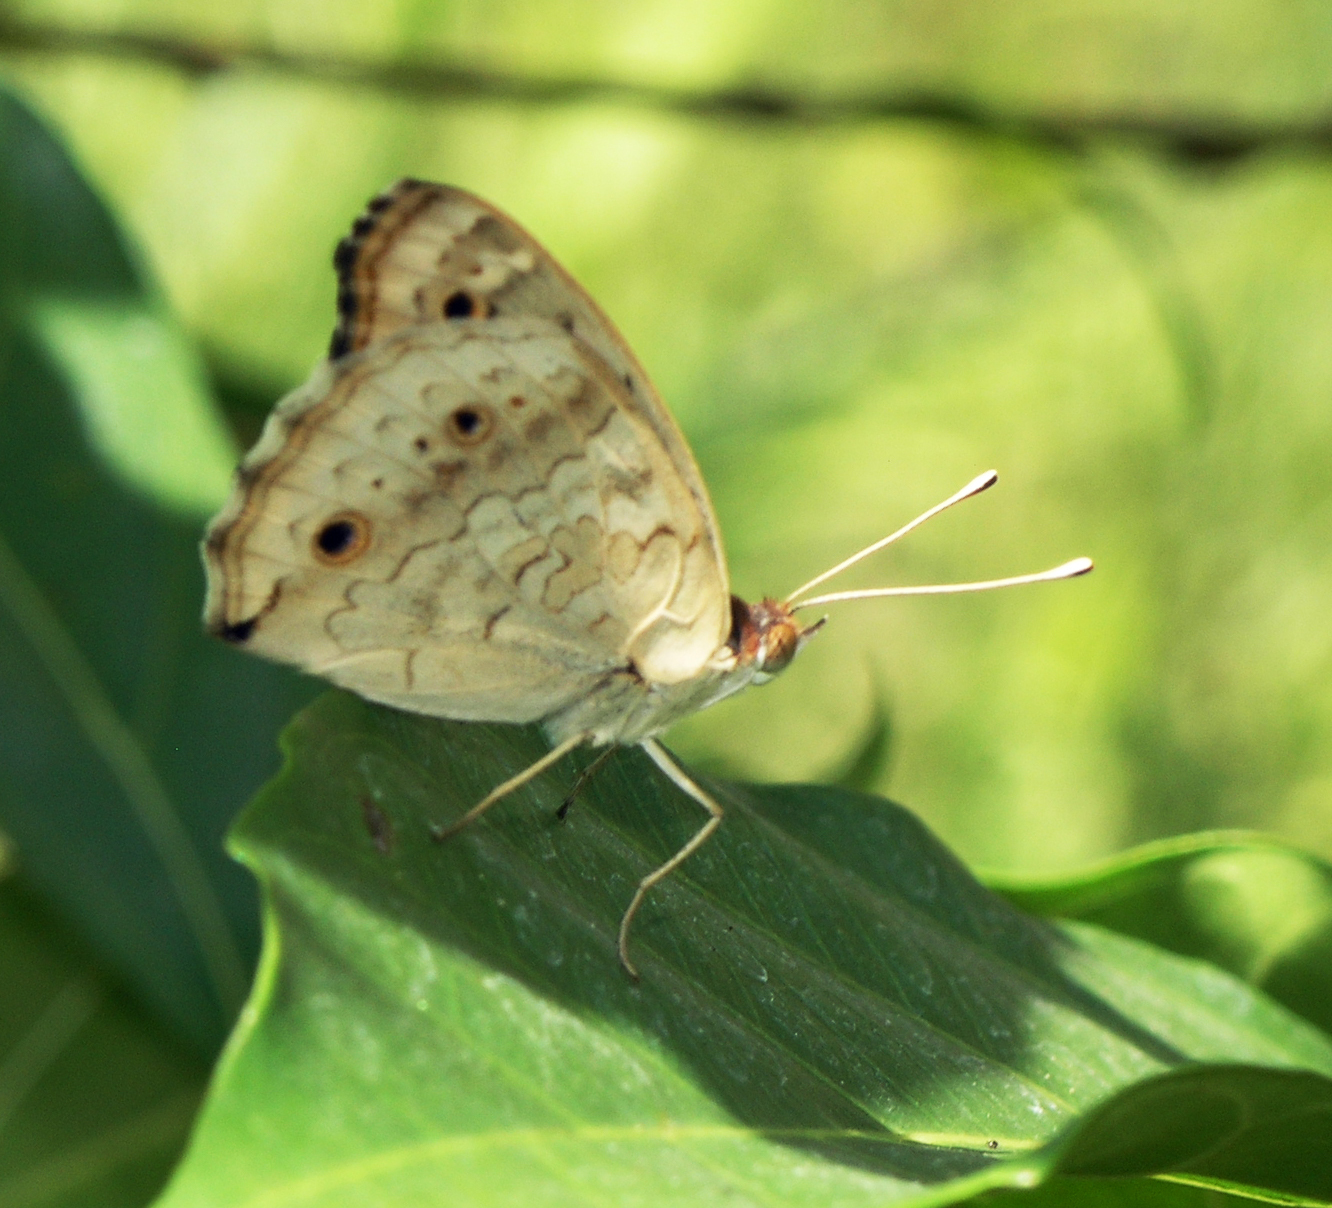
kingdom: Animalia
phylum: Arthropoda
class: Insecta
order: Lepidoptera
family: Nymphalidae
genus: Junonia
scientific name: Junonia orithya
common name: Blue pansy
